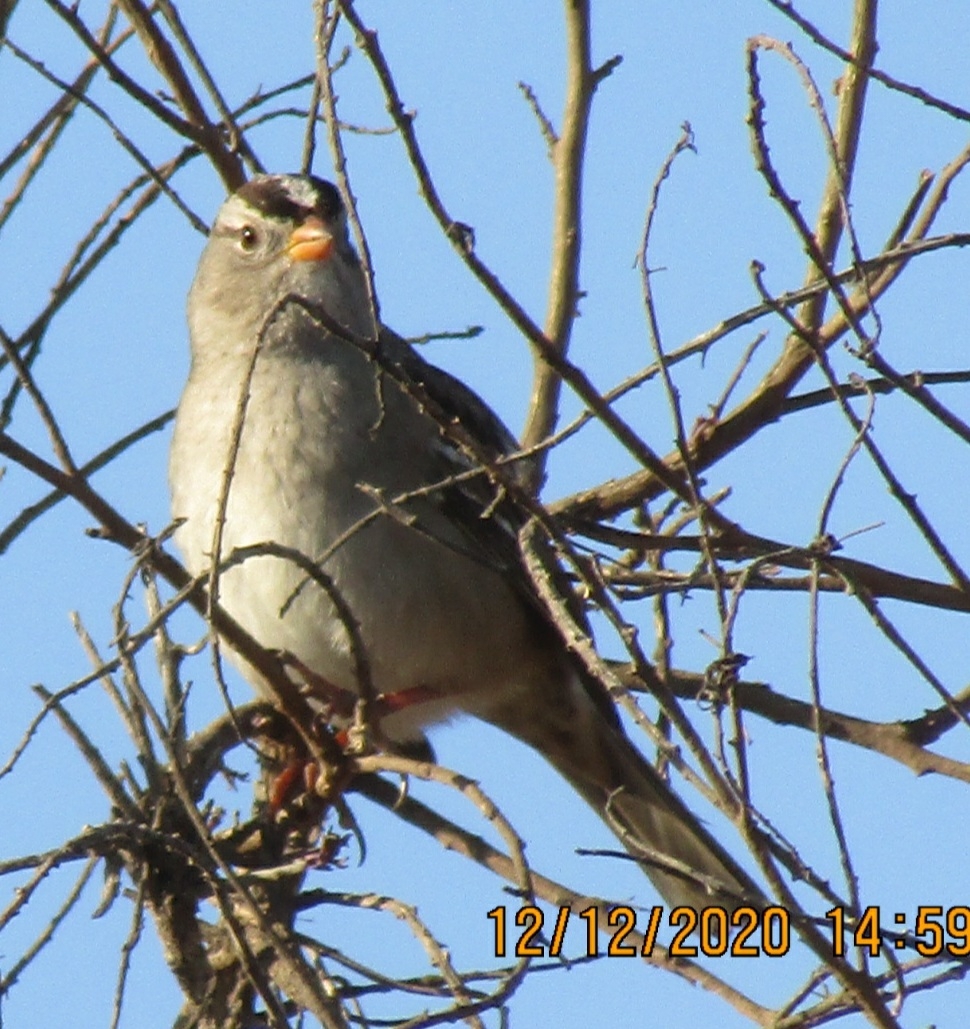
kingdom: Animalia
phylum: Chordata
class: Aves
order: Passeriformes
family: Passerellidae
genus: Zonotrichia
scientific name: Zonotrichia leucophrys
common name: White-crowned sparrow
